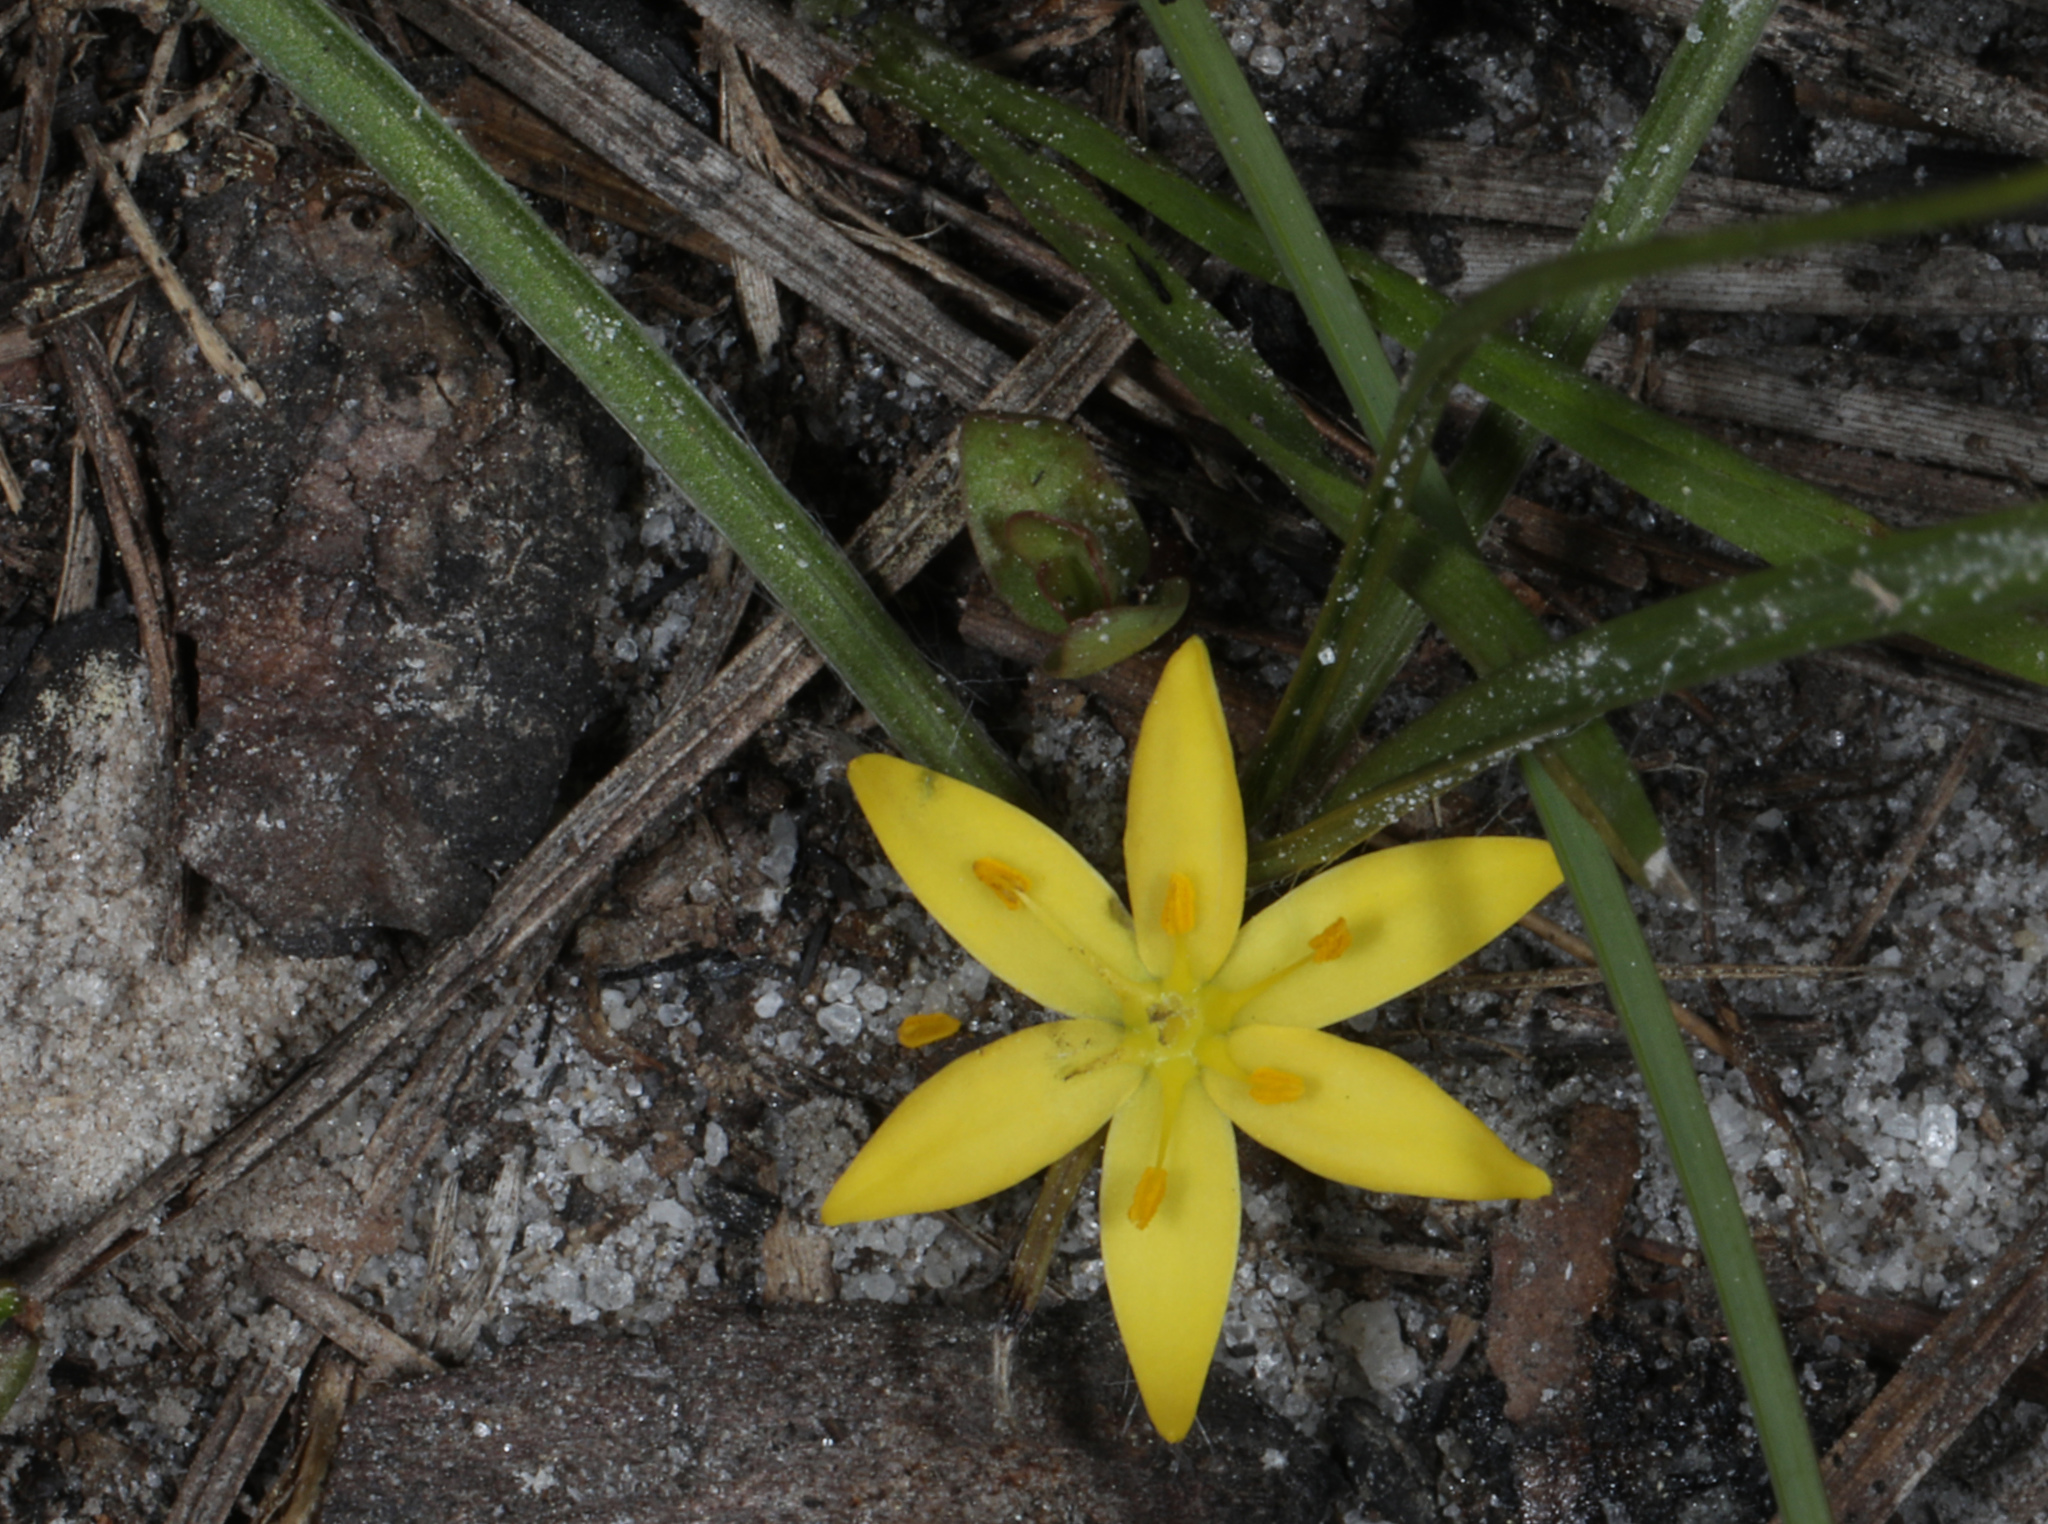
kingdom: Plantae
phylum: Tracheophyta
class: Liliopsida
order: Asparagales
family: Hypoxidaceae
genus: Hypoxis
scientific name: Hypoxis juncea
